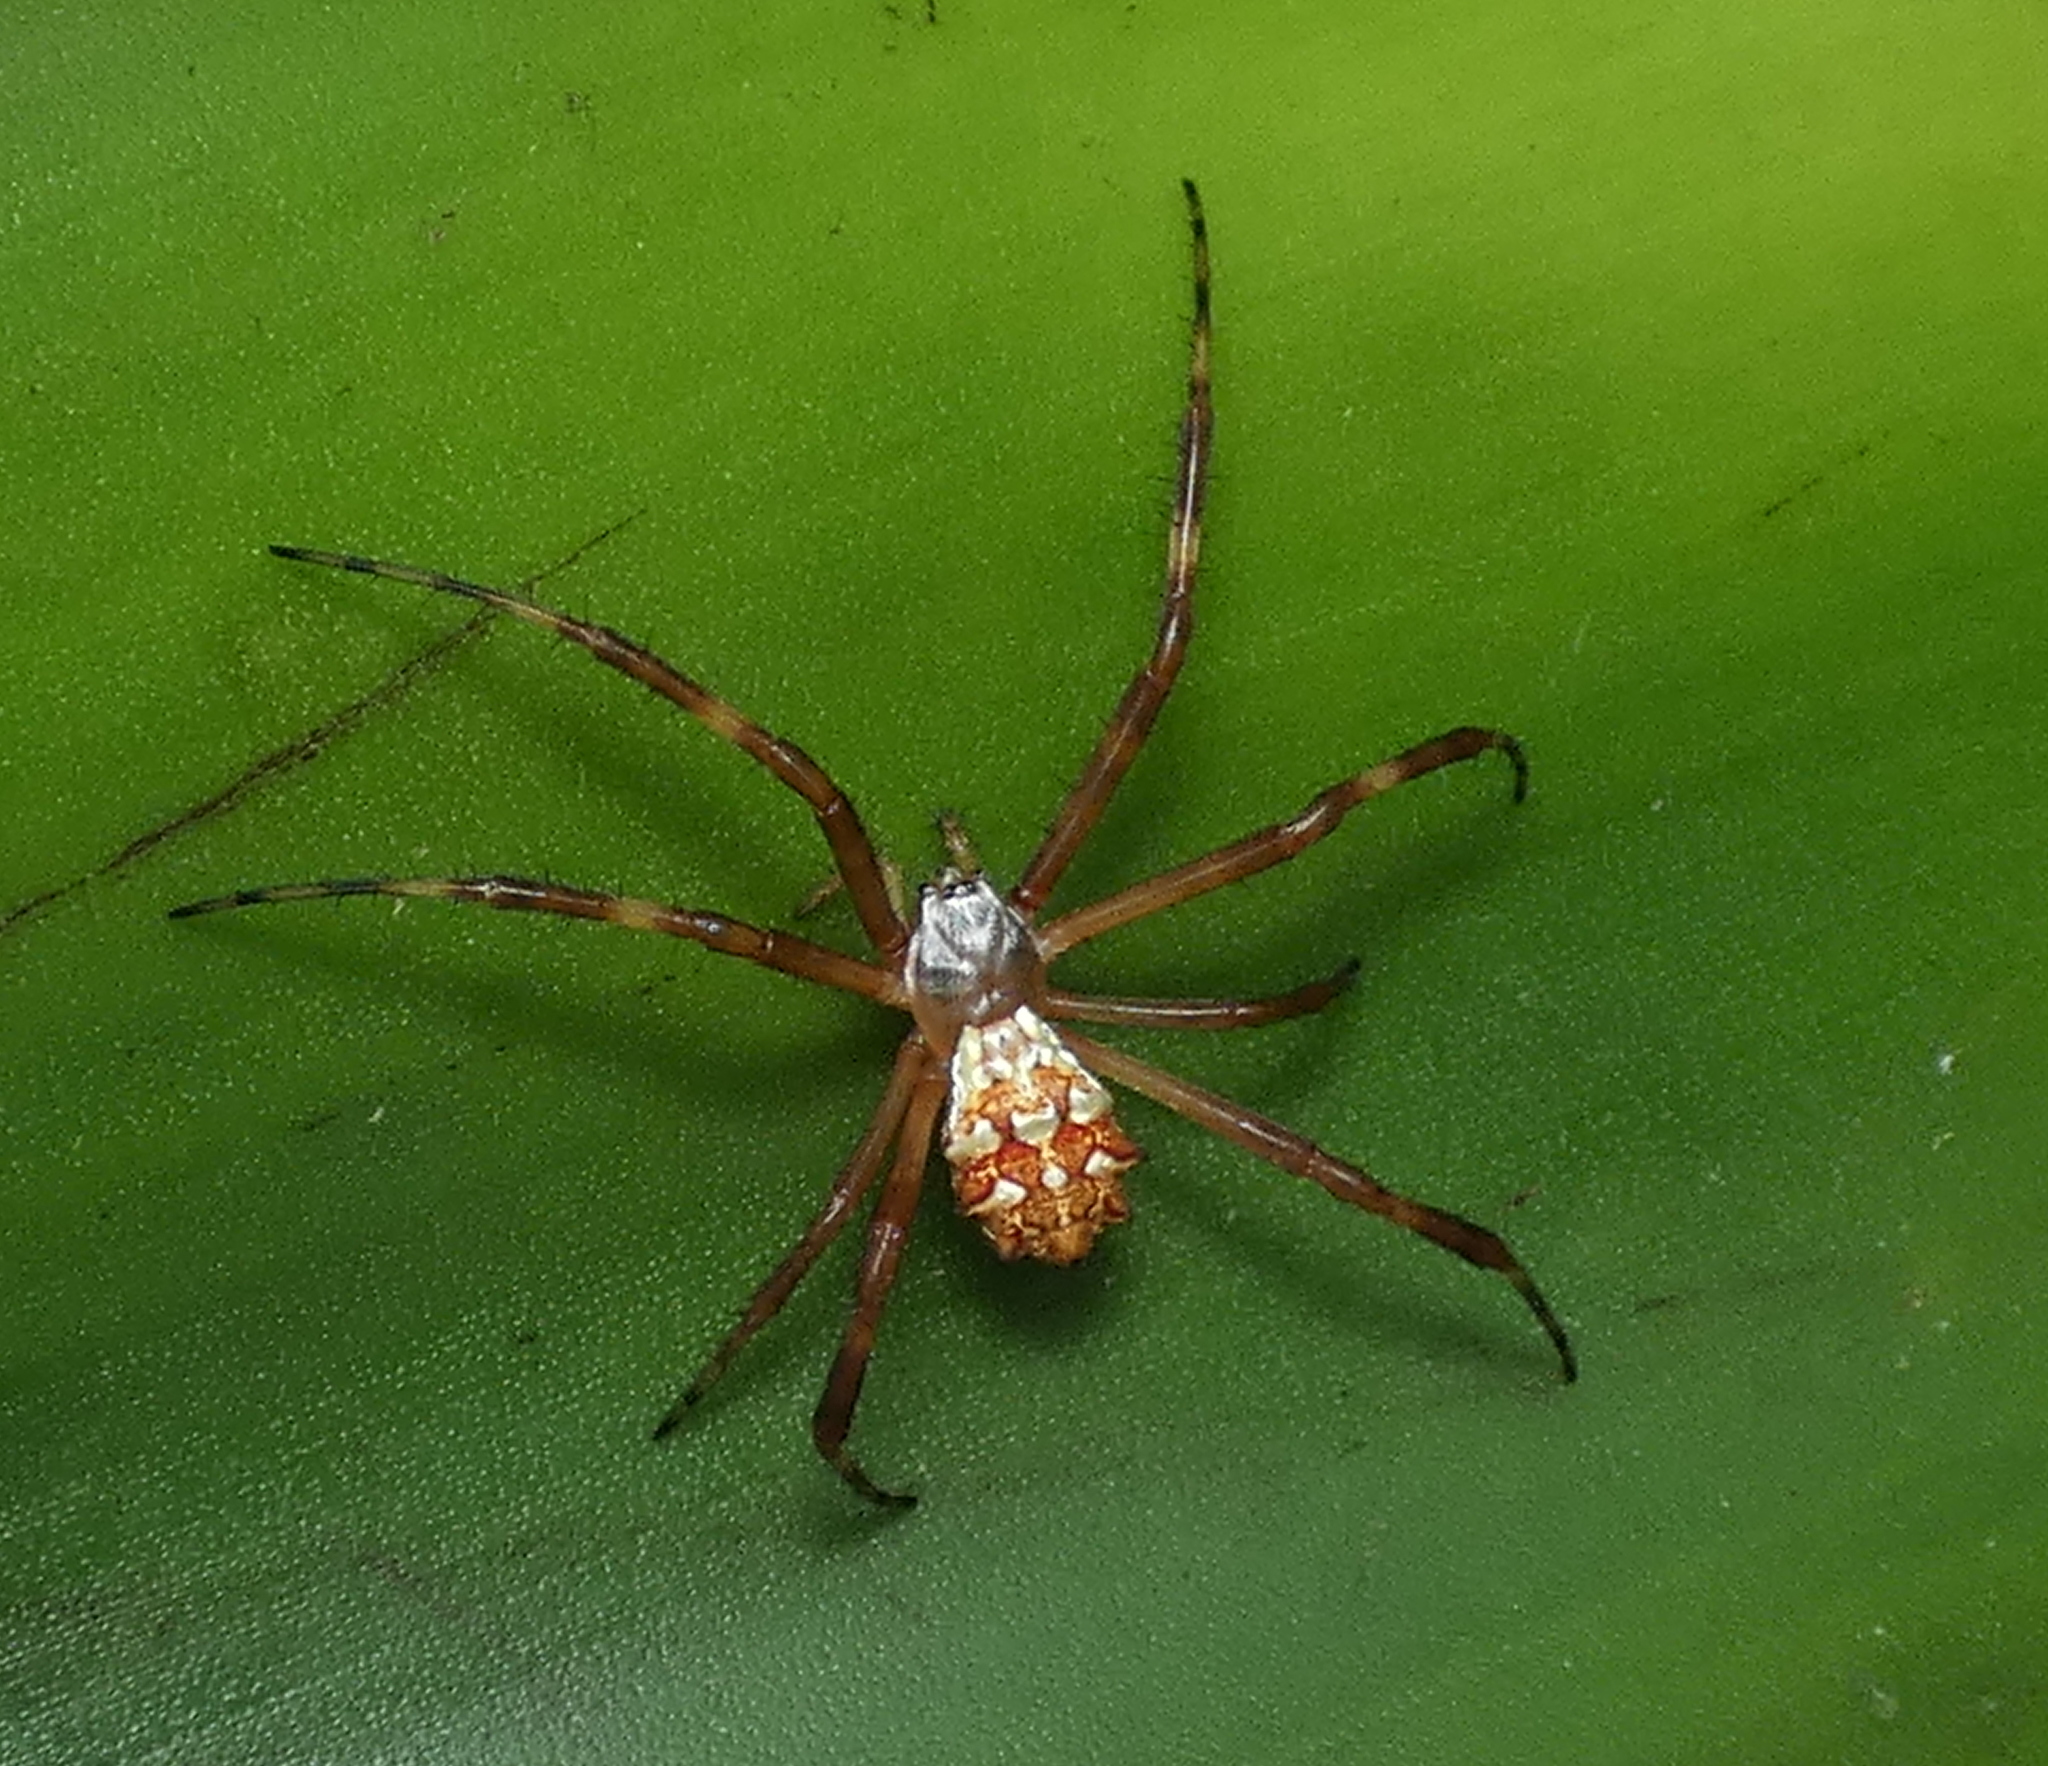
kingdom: Animalia
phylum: Arthropoda
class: Arachnida
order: Araneae
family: Araneidae
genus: Argiope
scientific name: Argiope argentata
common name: Orb weavers
